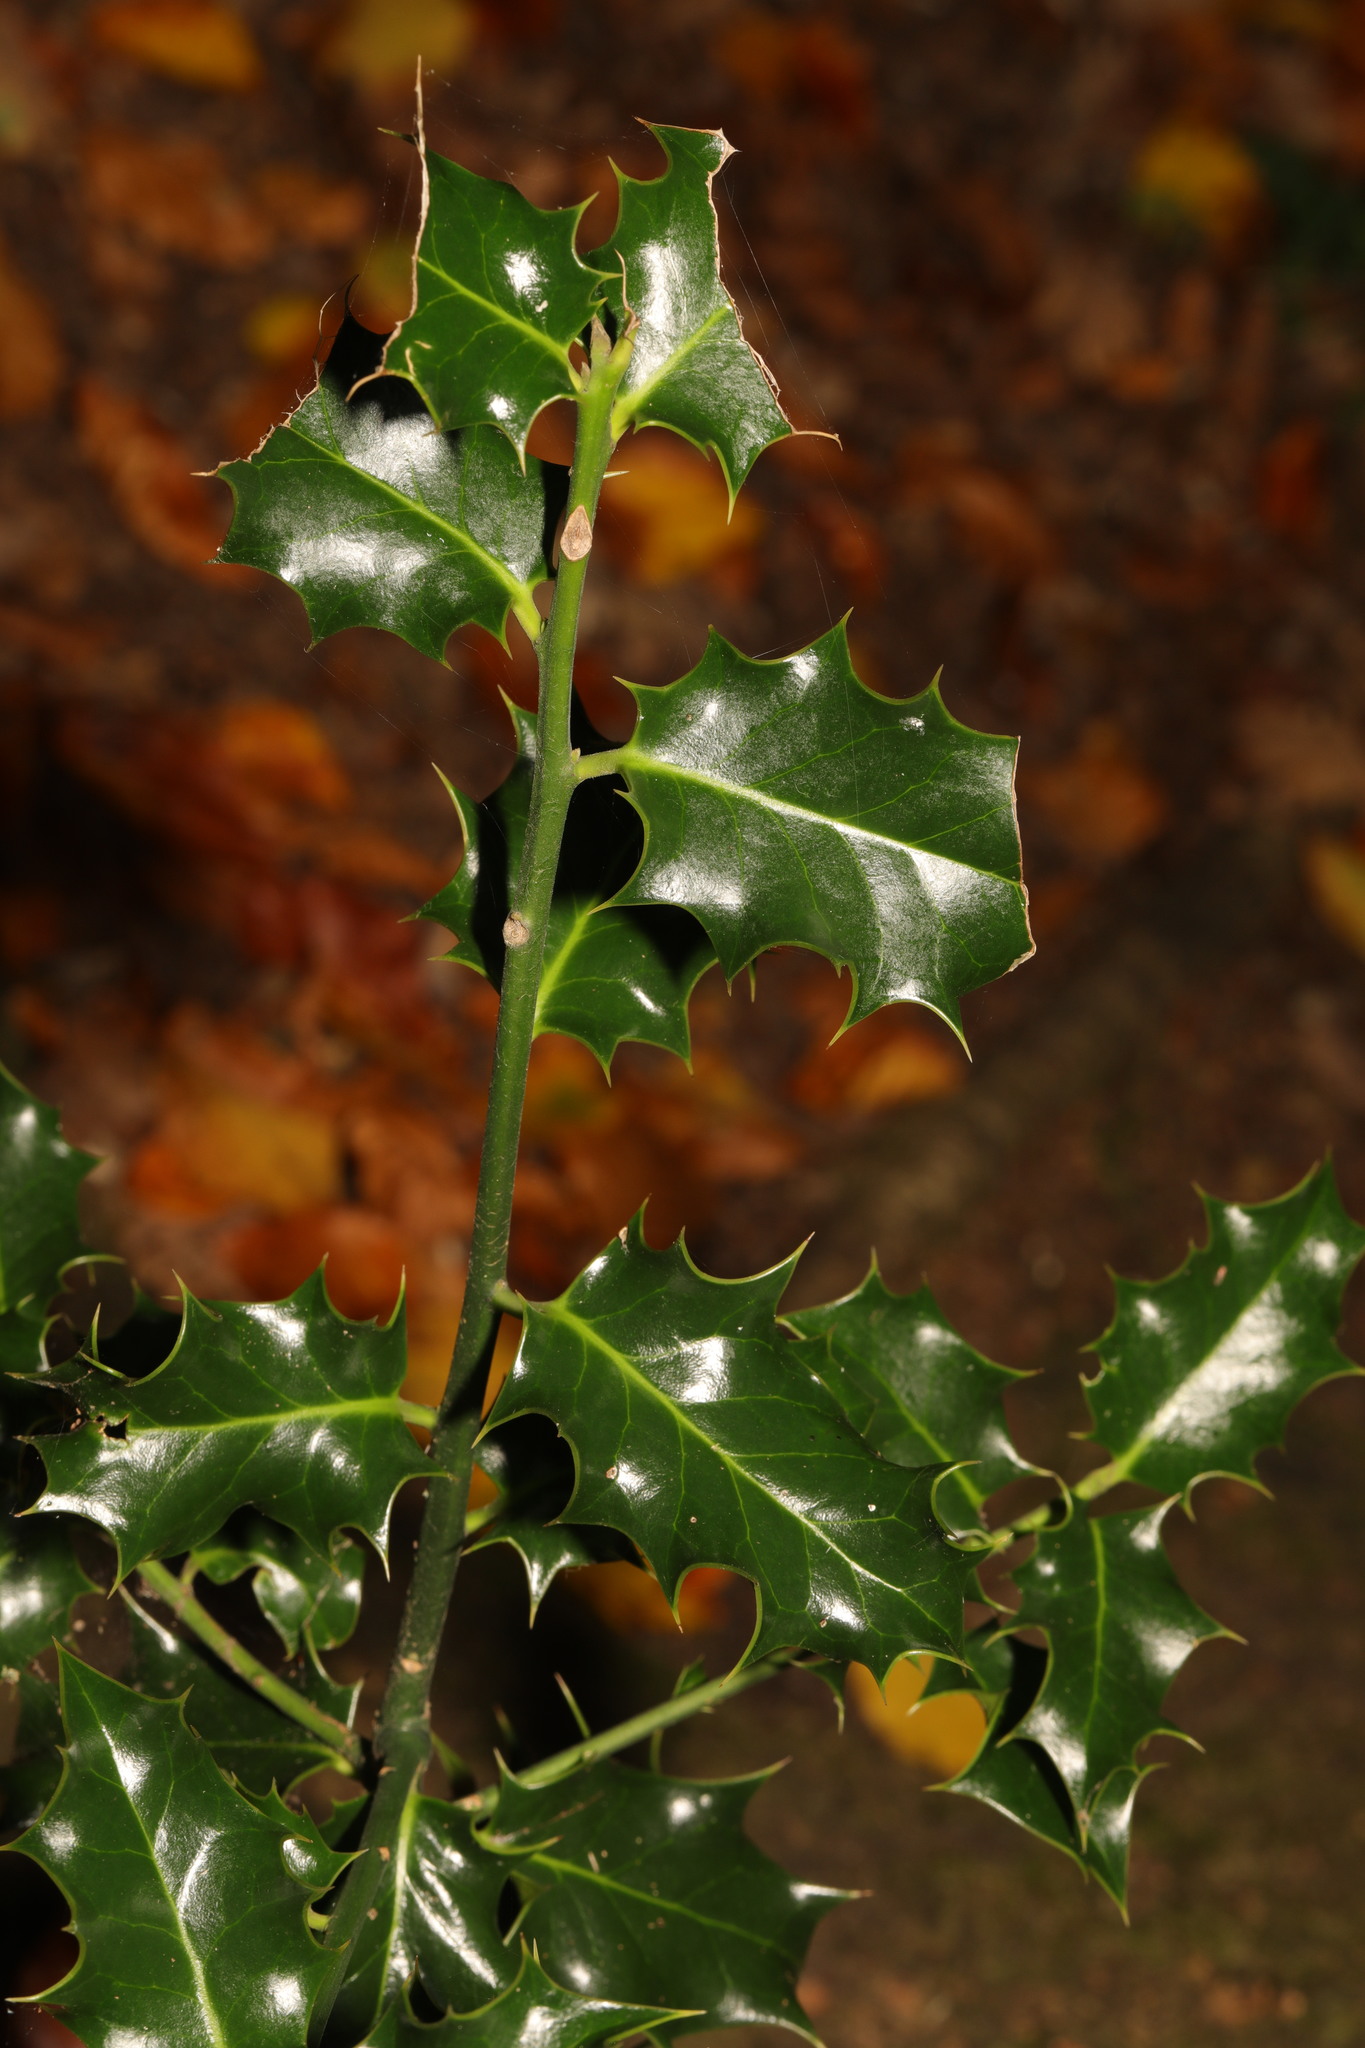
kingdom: Plantae
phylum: Tracheophyta
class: Magnoliopsida
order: Aquifoliales
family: Aquifoliaceae
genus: Ilex
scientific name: Ilex aquifolium
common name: English holly
